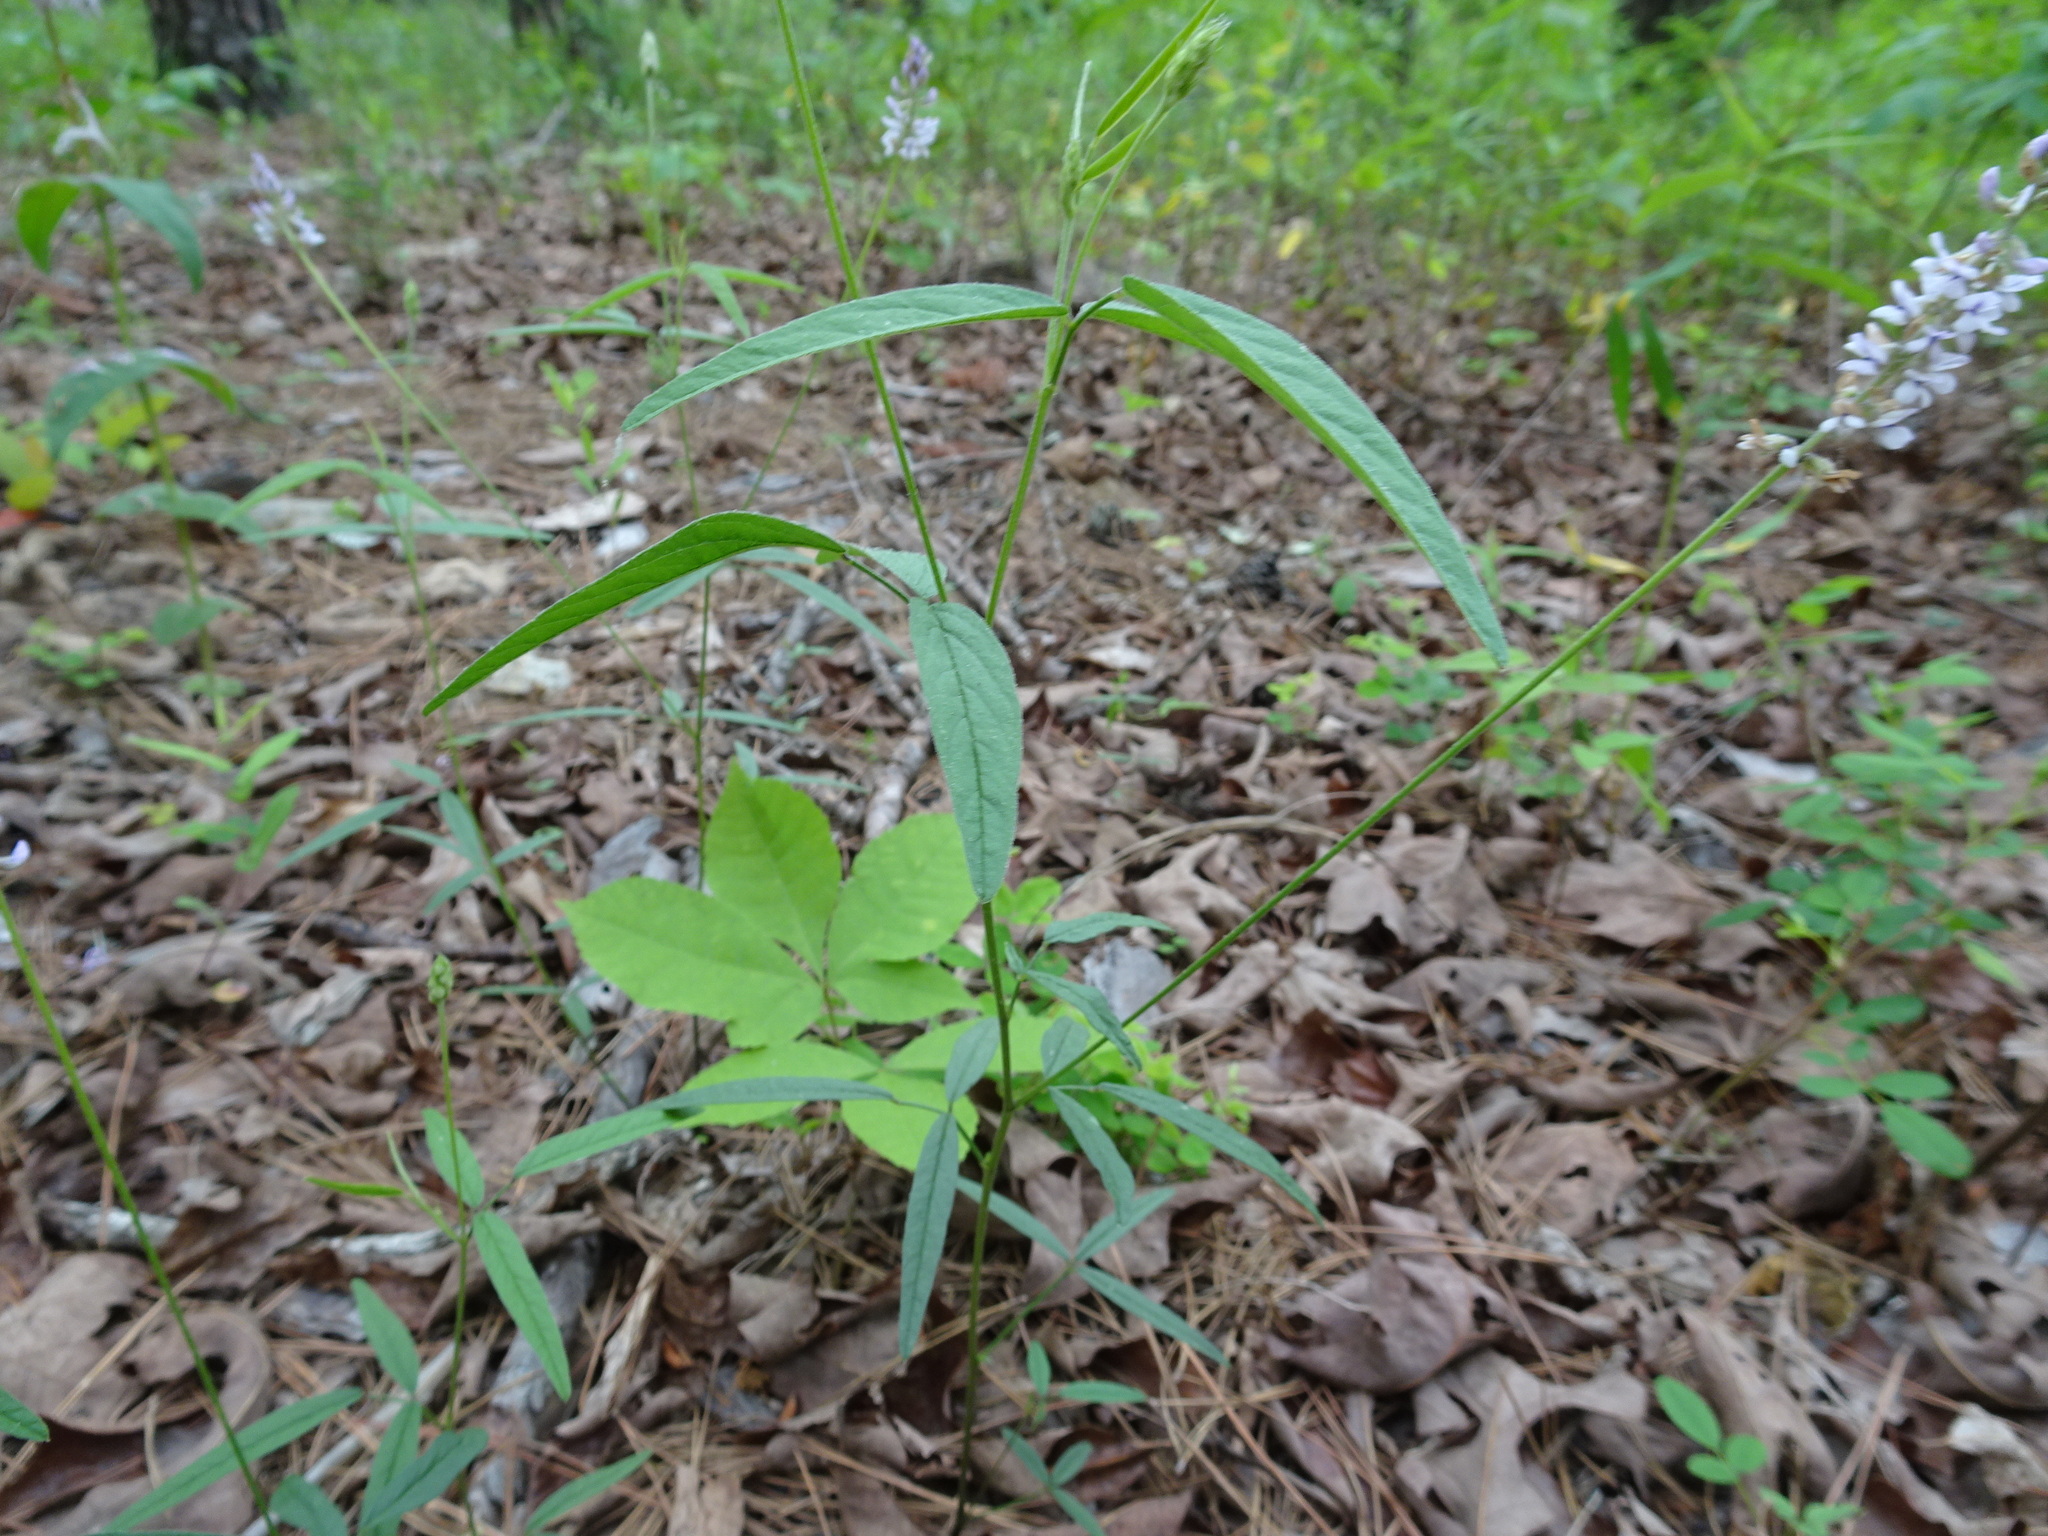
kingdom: Plantae
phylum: Tracheophyta
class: Magnoliopsida
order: Fabales
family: Fabaceae
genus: Orbexilum
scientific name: Orbexilum pedunculatum
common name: Sampson's snakeroot
